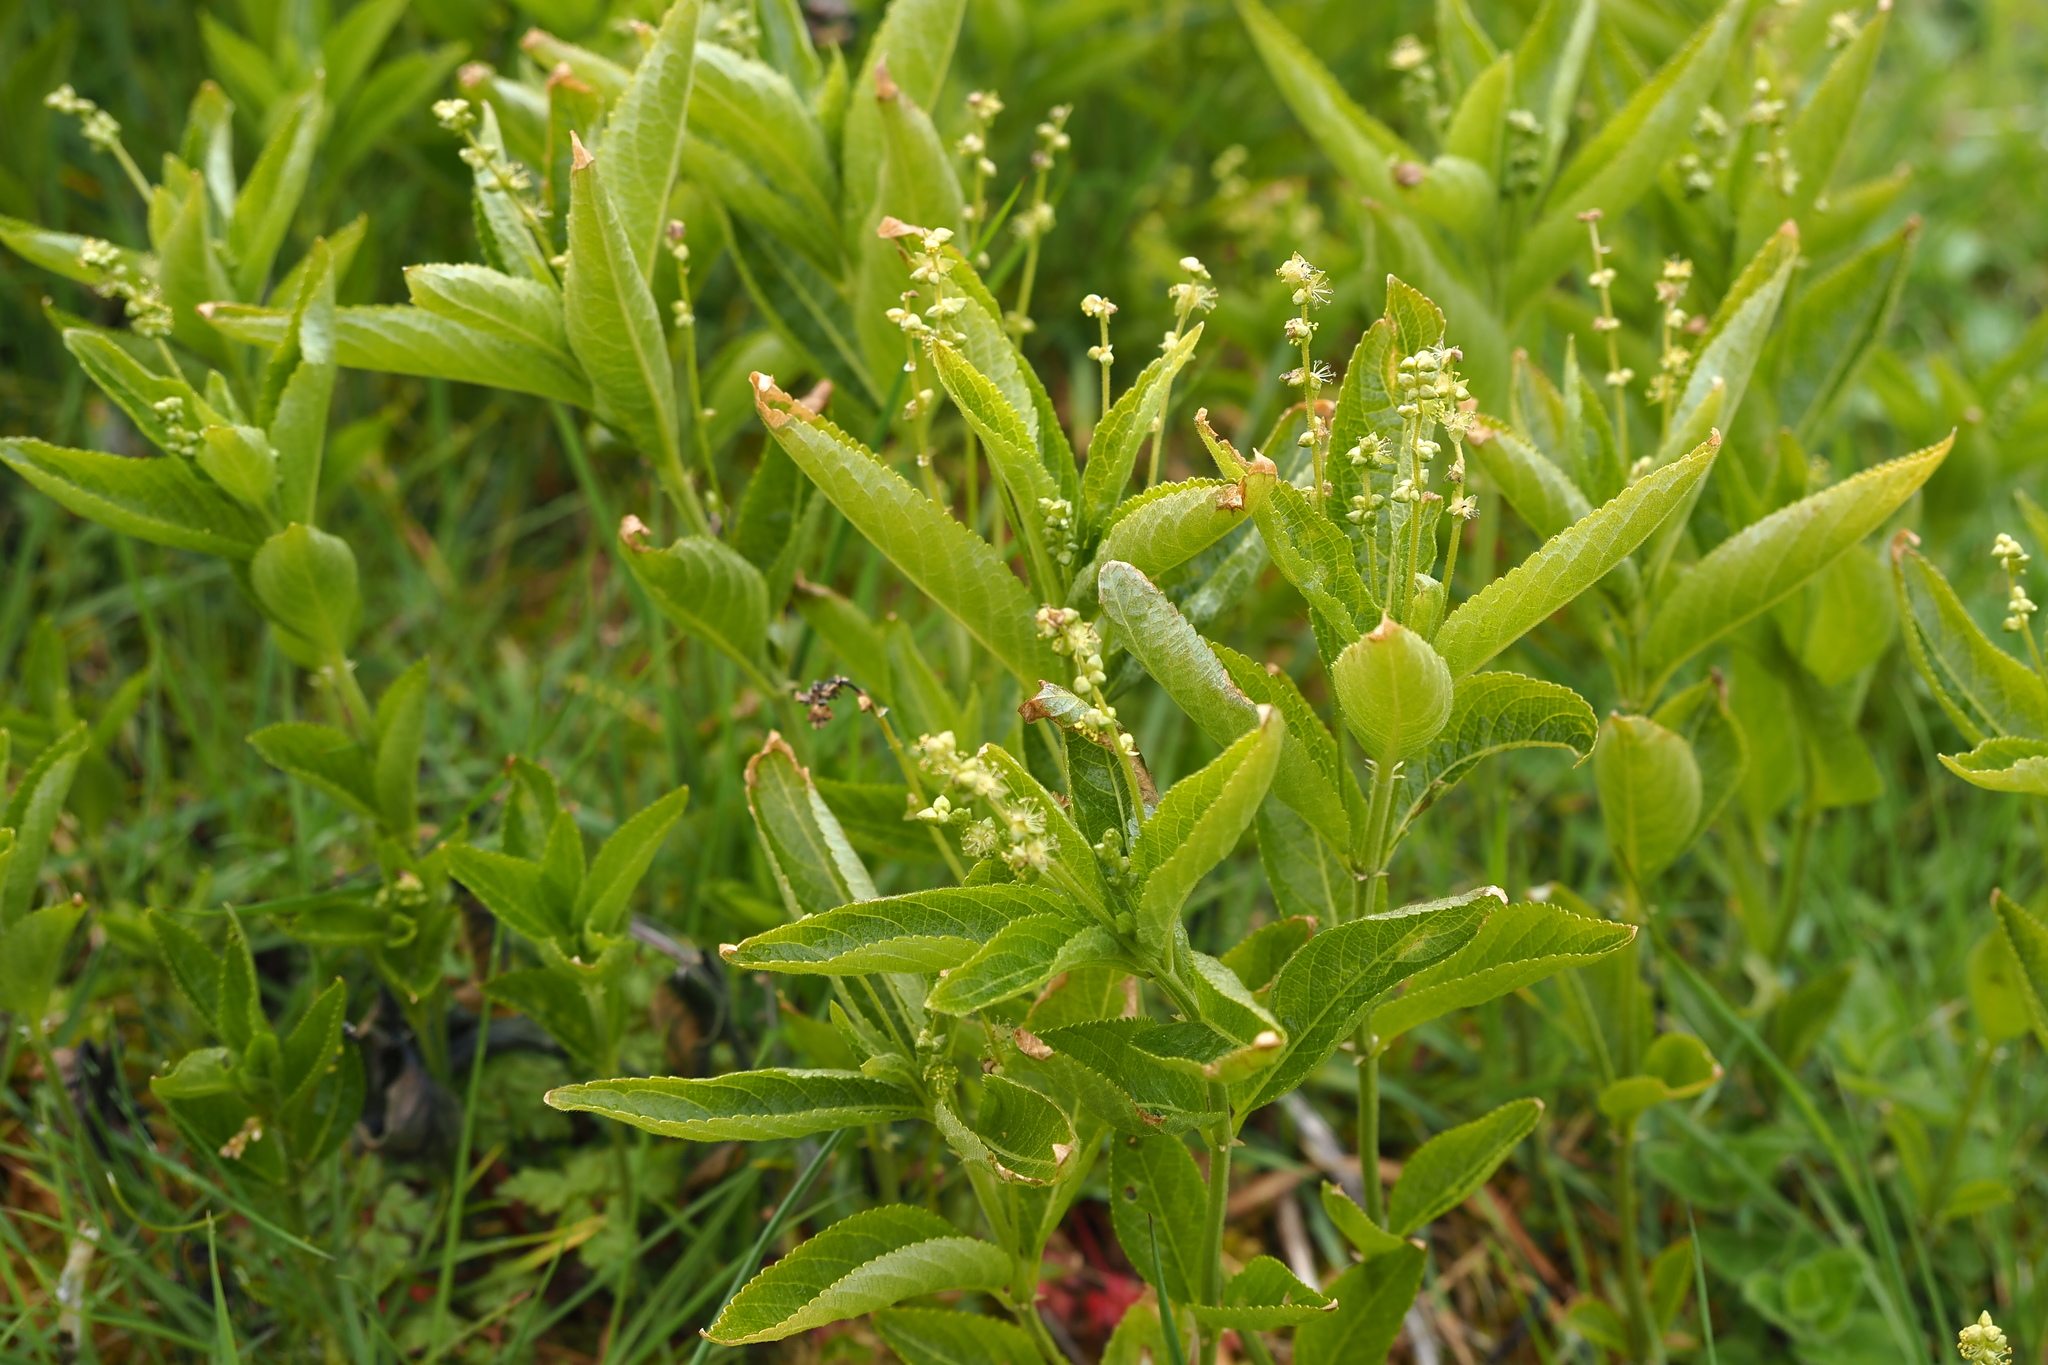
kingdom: Plantae
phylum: Tracheophyta
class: Magnoliopsida
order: Malpighiales
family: Euphorbiaceae
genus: Mercurialis
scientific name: Mercurialis perennis
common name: Dog mercury
